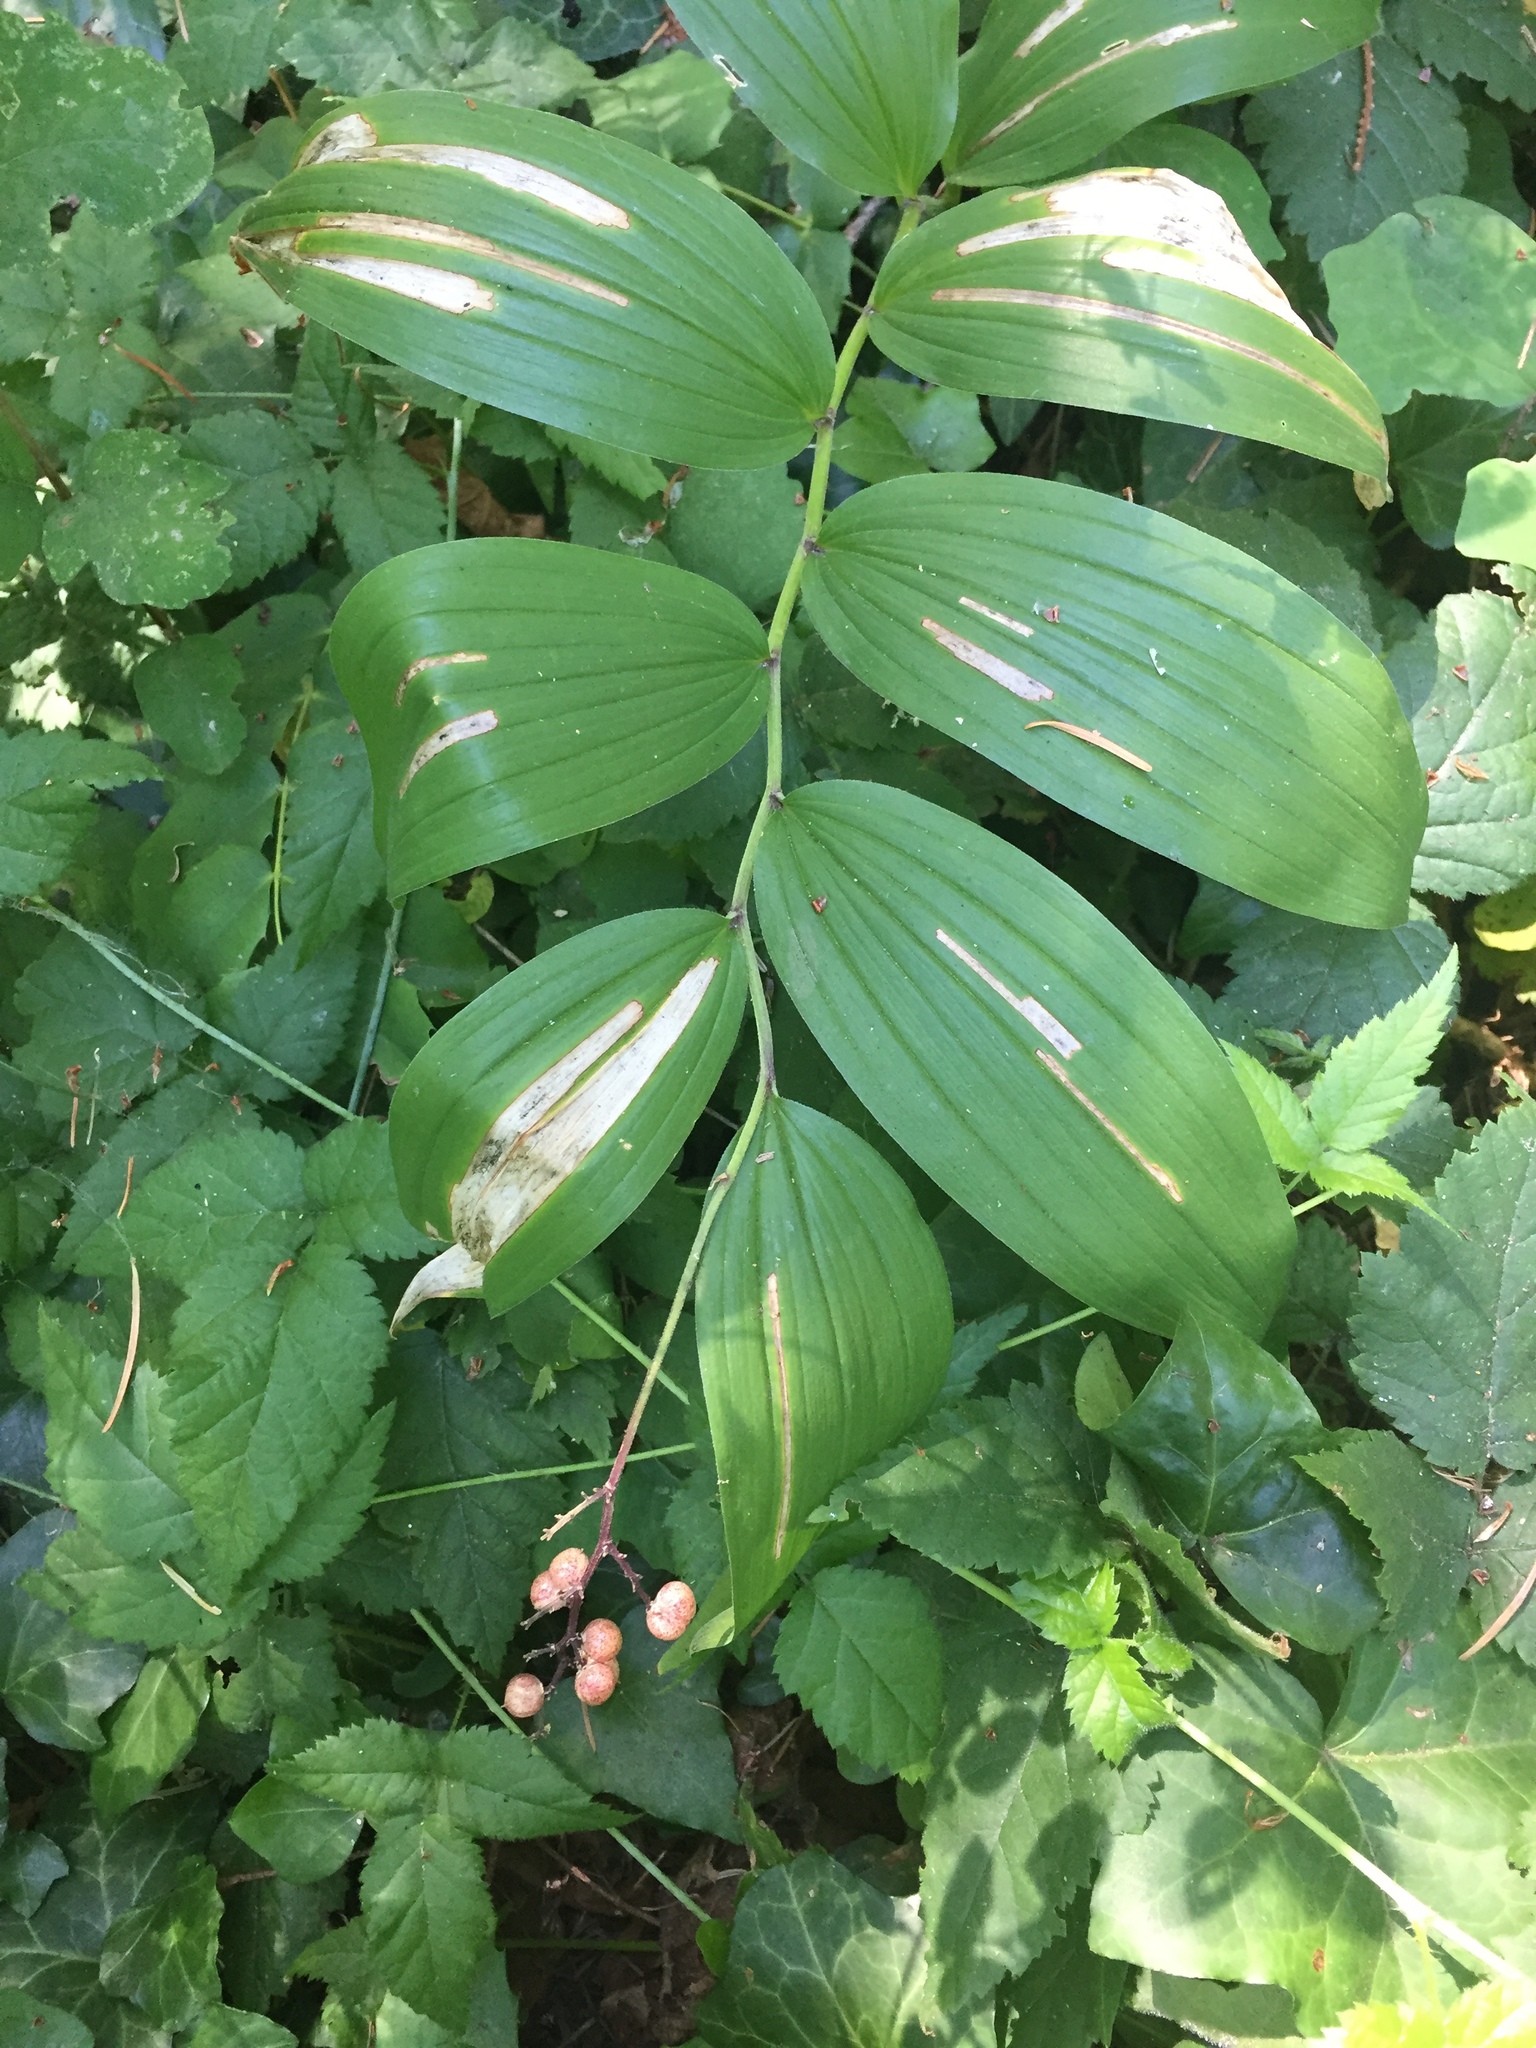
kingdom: Plantae
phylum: Tracheophyta
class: Liliopsida
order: Asparagales
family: Asparagaceae
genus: Maianthemum
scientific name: Maianthemum racemosum
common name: False spikenard
